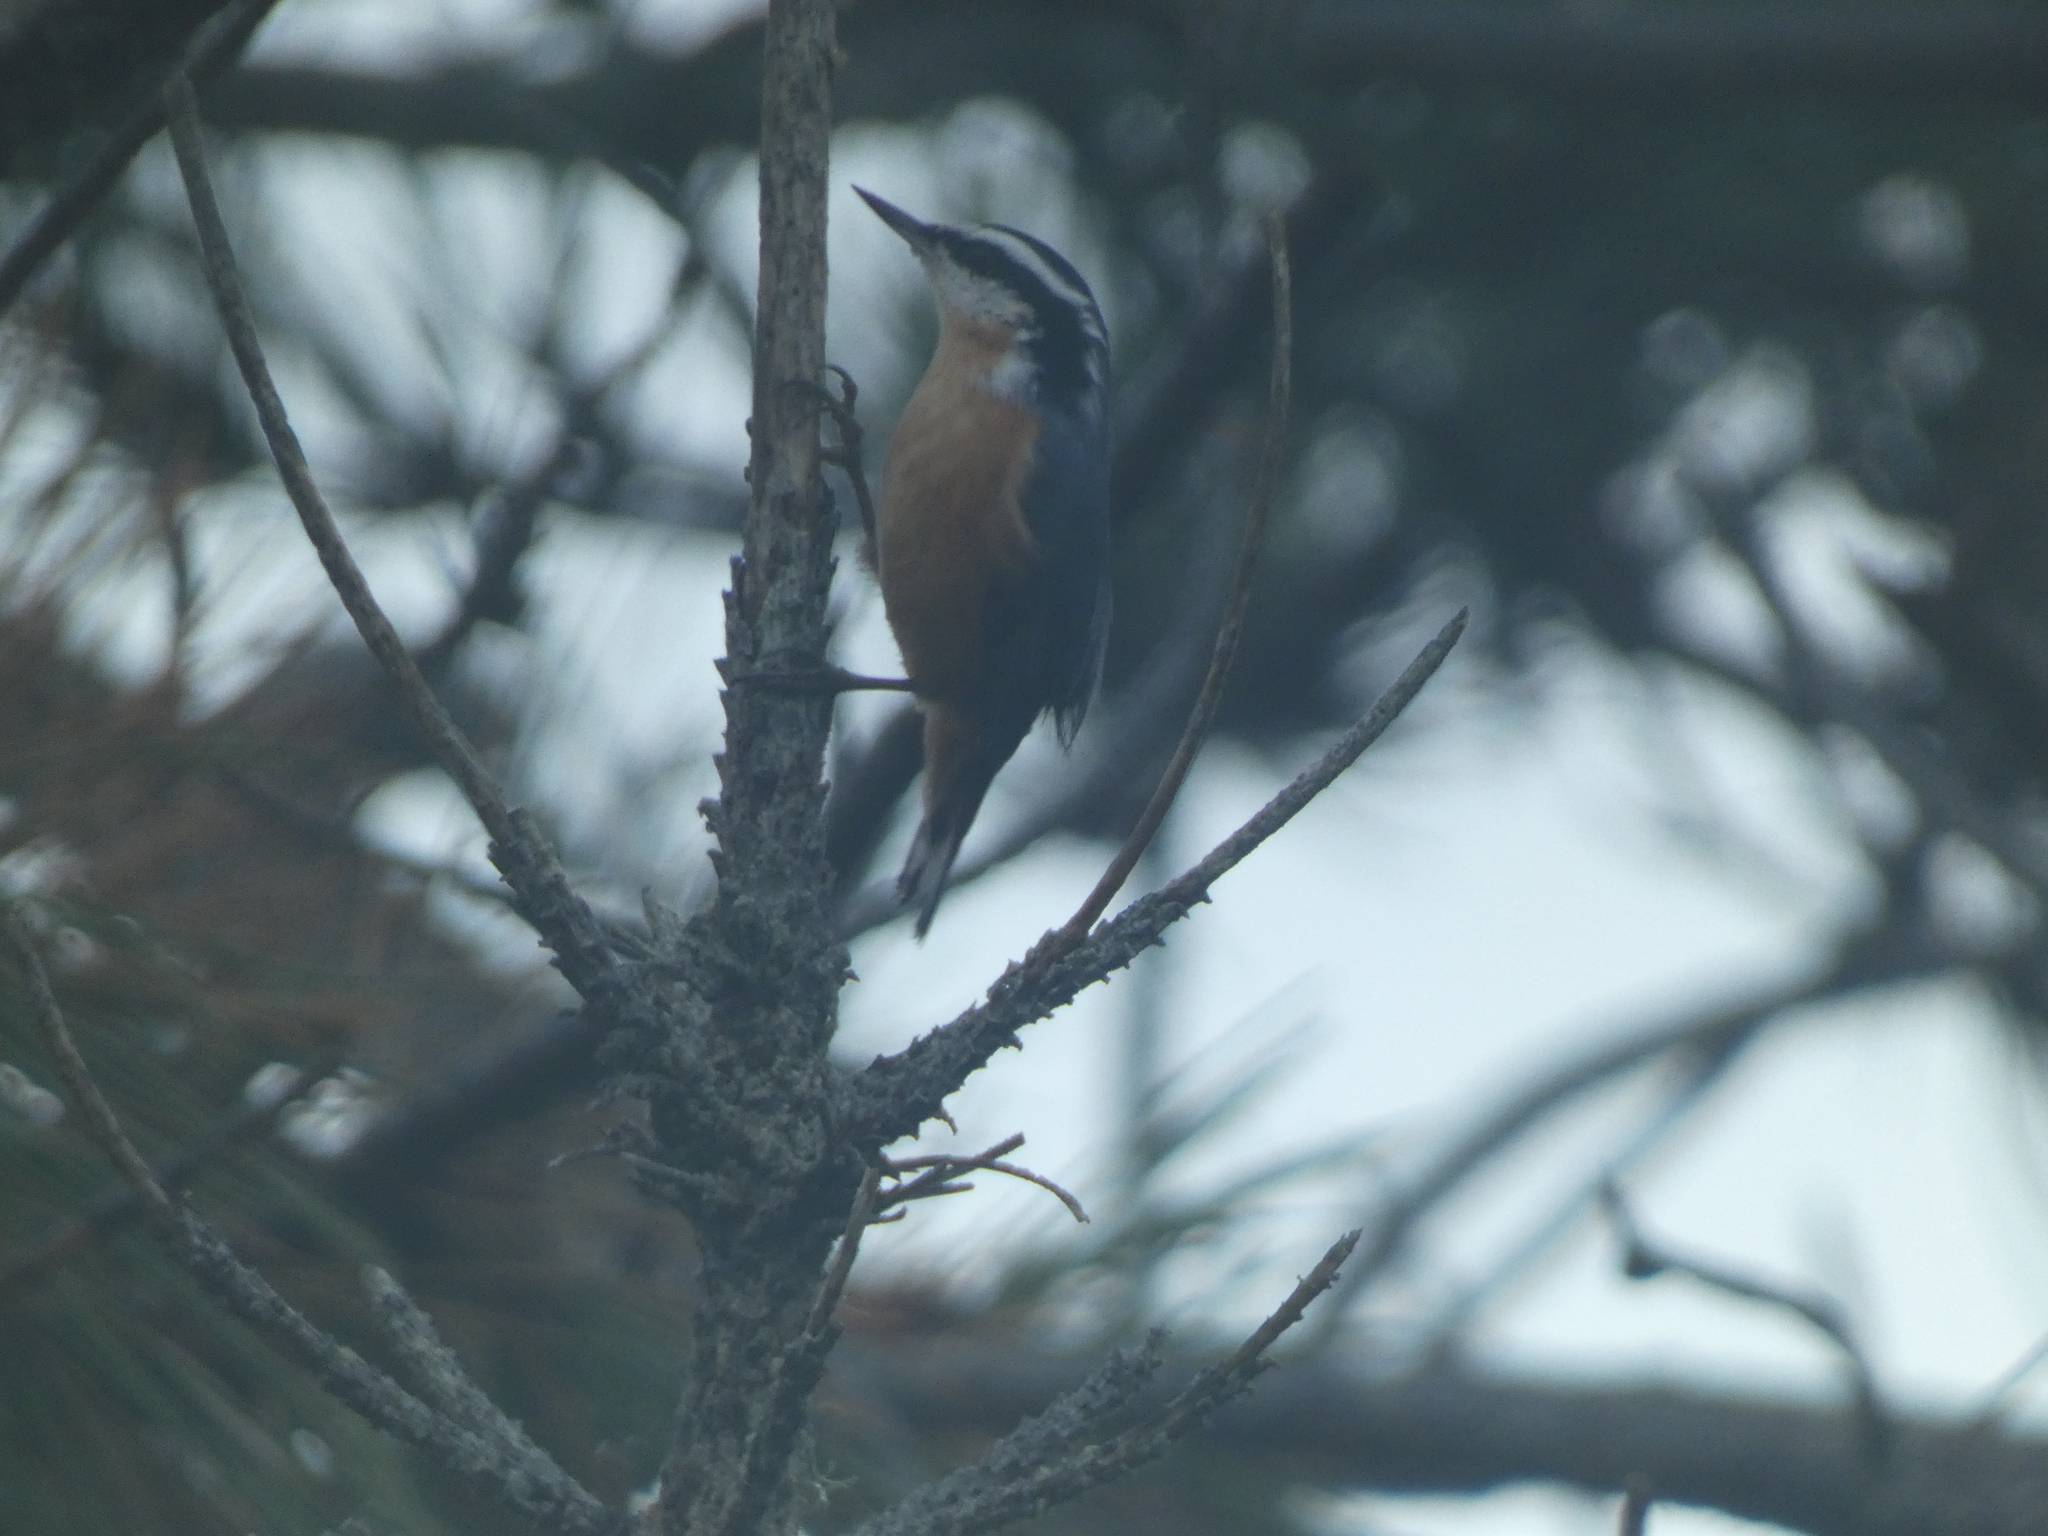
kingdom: Animalia
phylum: Chordata
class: Aves
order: Passeriformes
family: Sittidae
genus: Sitta
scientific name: Sitta canadensis
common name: Red-breasted nuthatch
